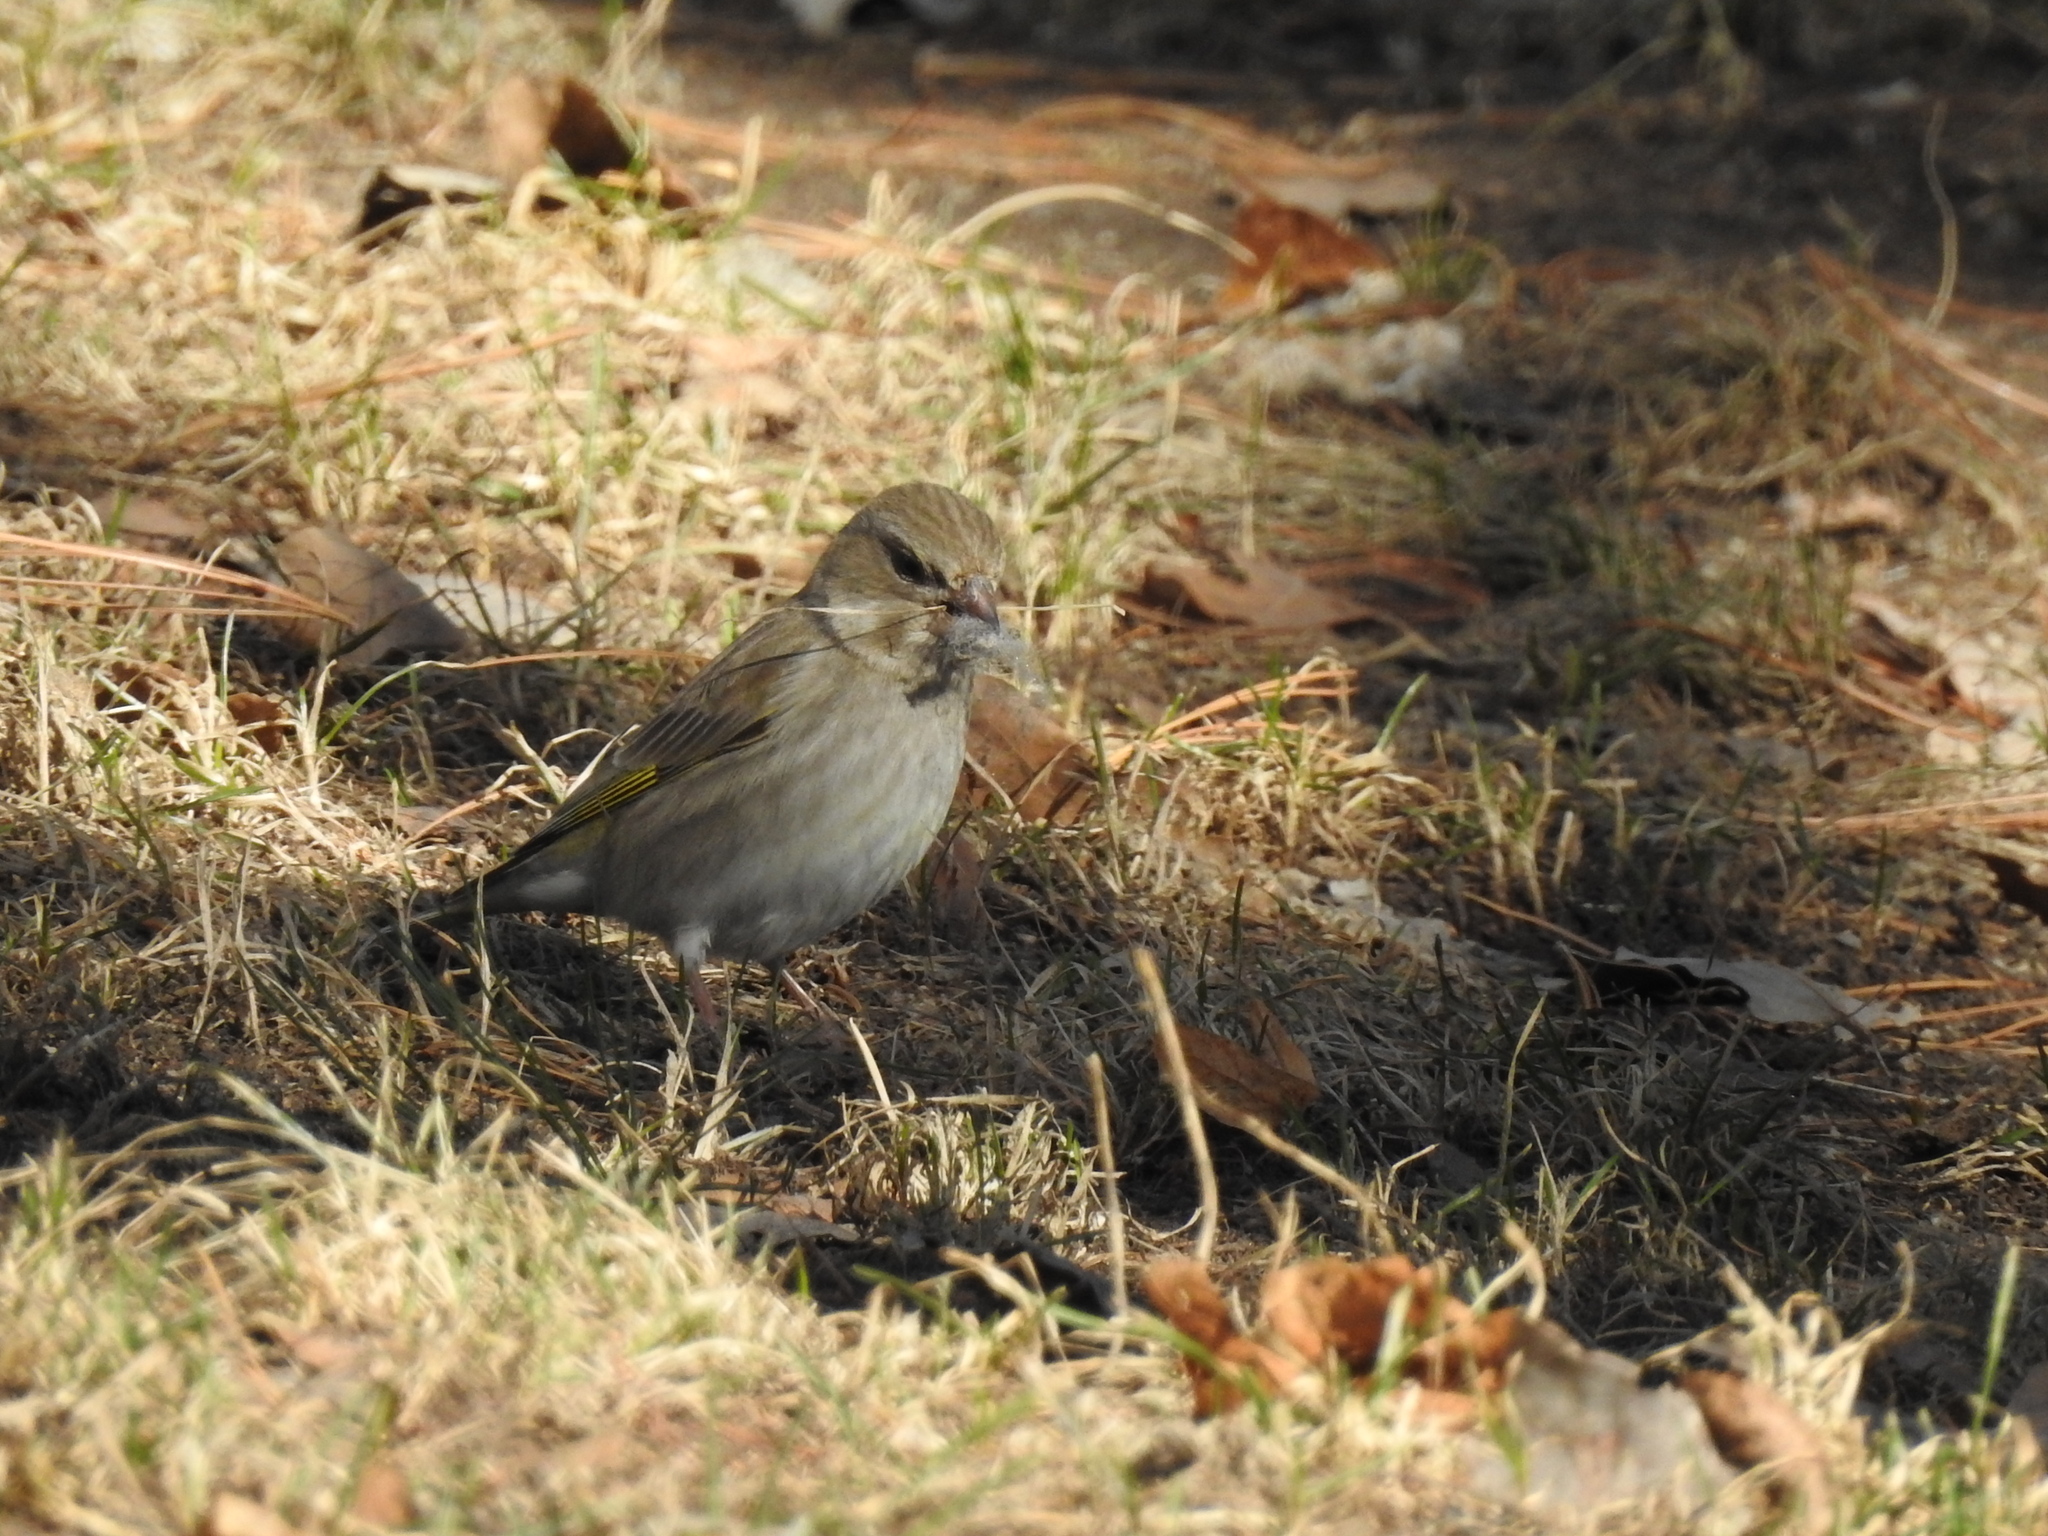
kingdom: Plantae
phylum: Tracheophyta
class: Liliopsida
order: Poales
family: Poaceae
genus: Chloris
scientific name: Chloris chloris
